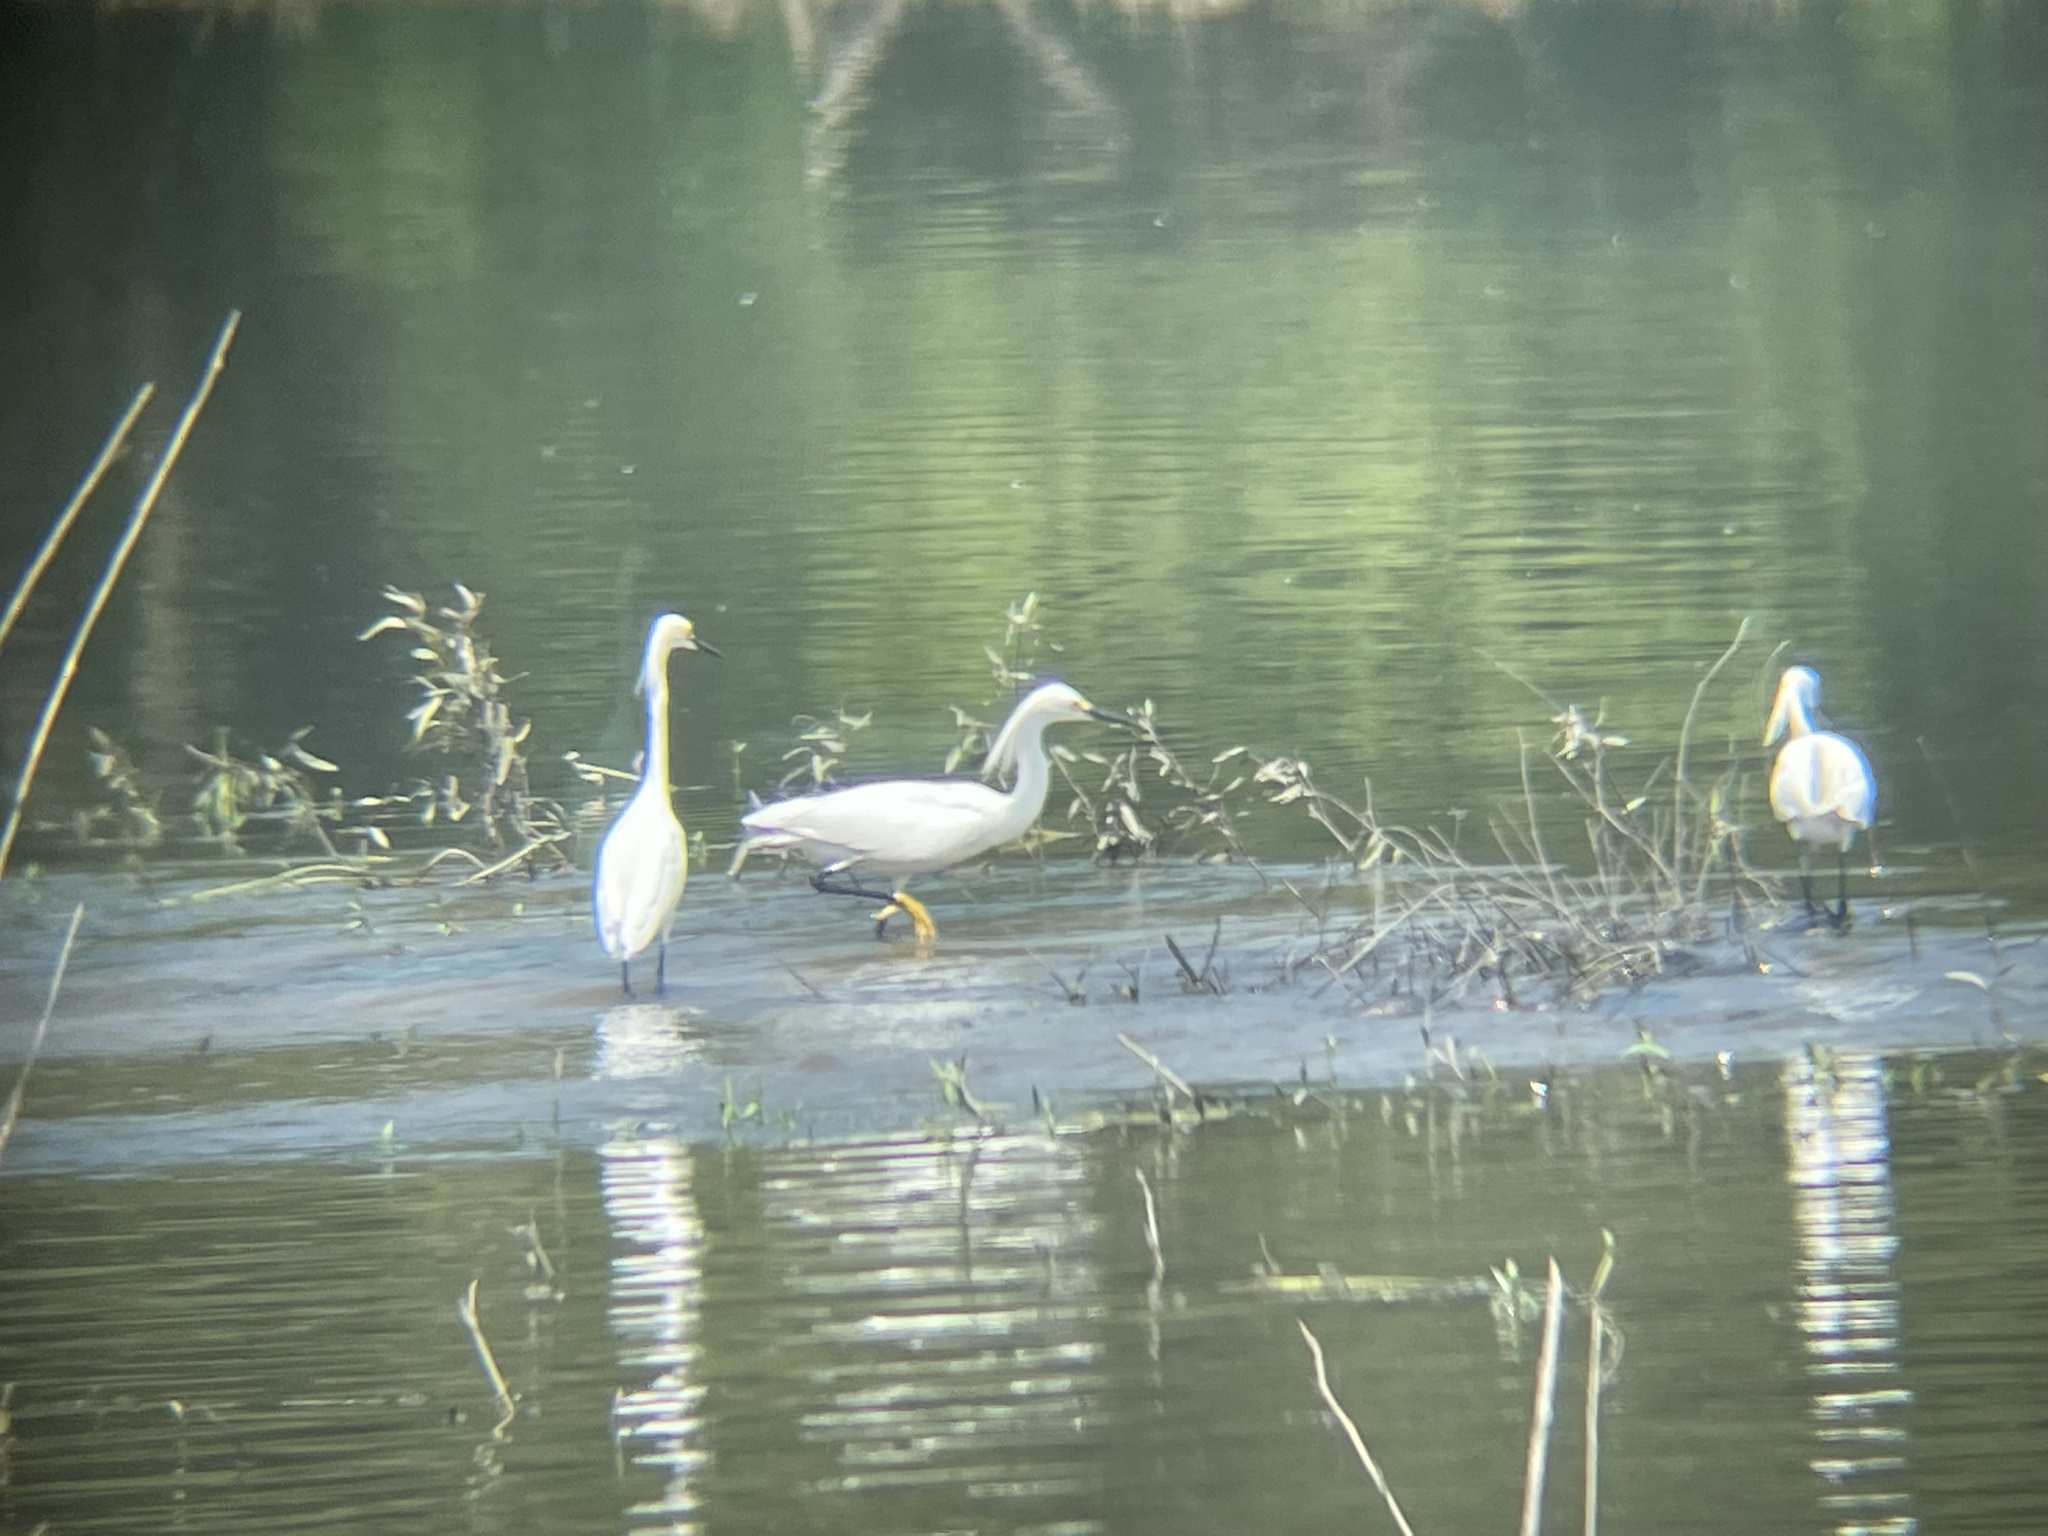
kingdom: Animalia
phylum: Chordata
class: Aves
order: Pelecaniformes
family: Ardeidae
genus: Egretta
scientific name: Egretta thula
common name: Snowy egret
